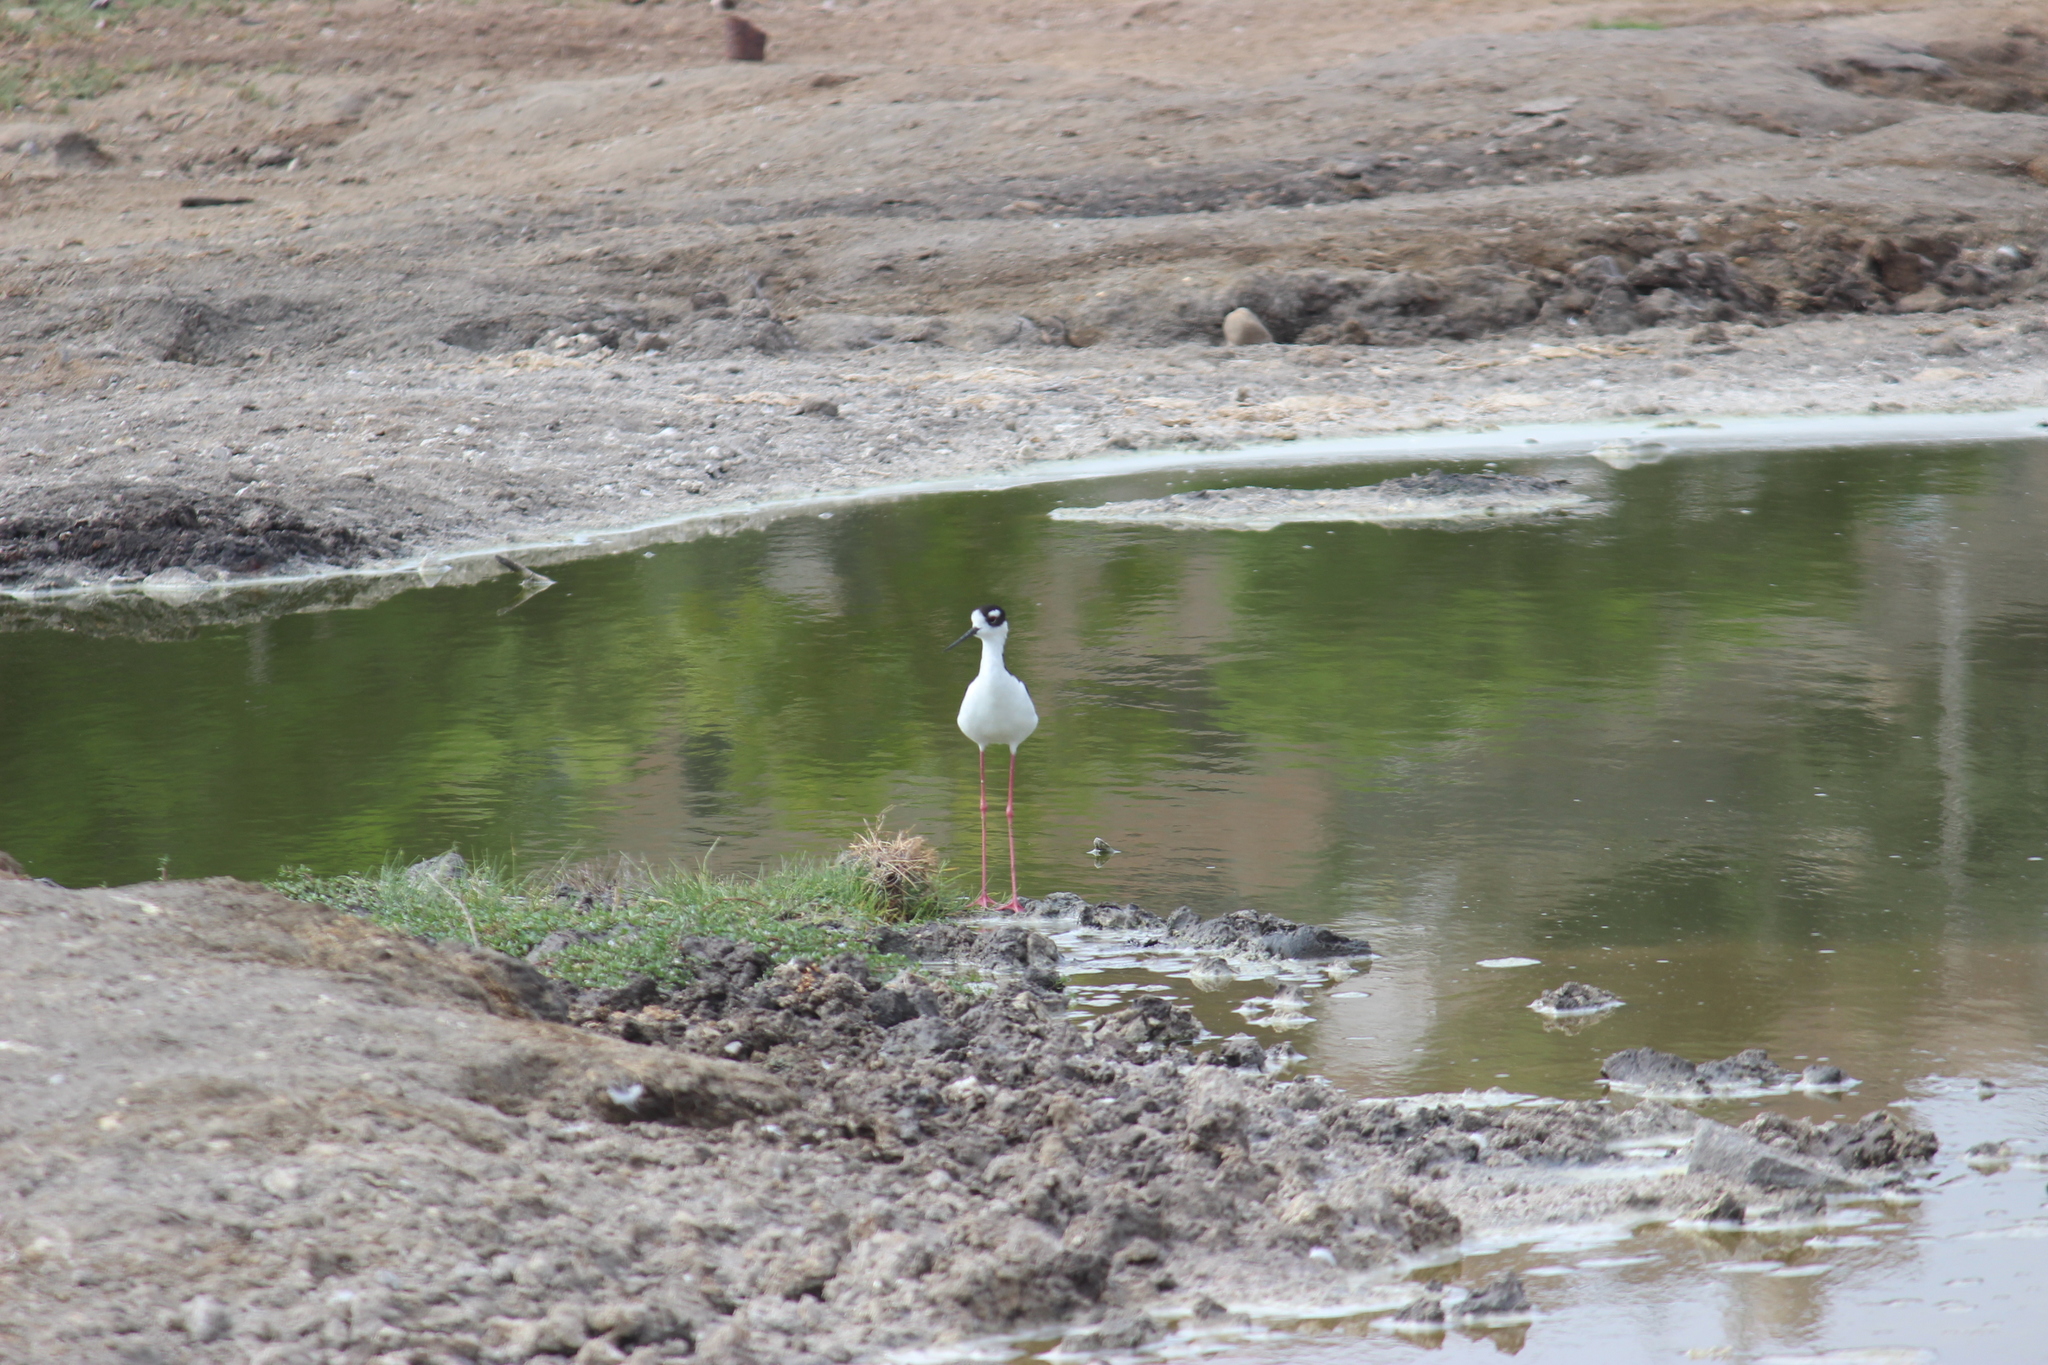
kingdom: Animalia
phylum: Chordata
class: Aves
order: Charadriiformes
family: Recurvirostridae
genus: Himantopus
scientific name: Himantopus mexicanus
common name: Black-necked stilt
